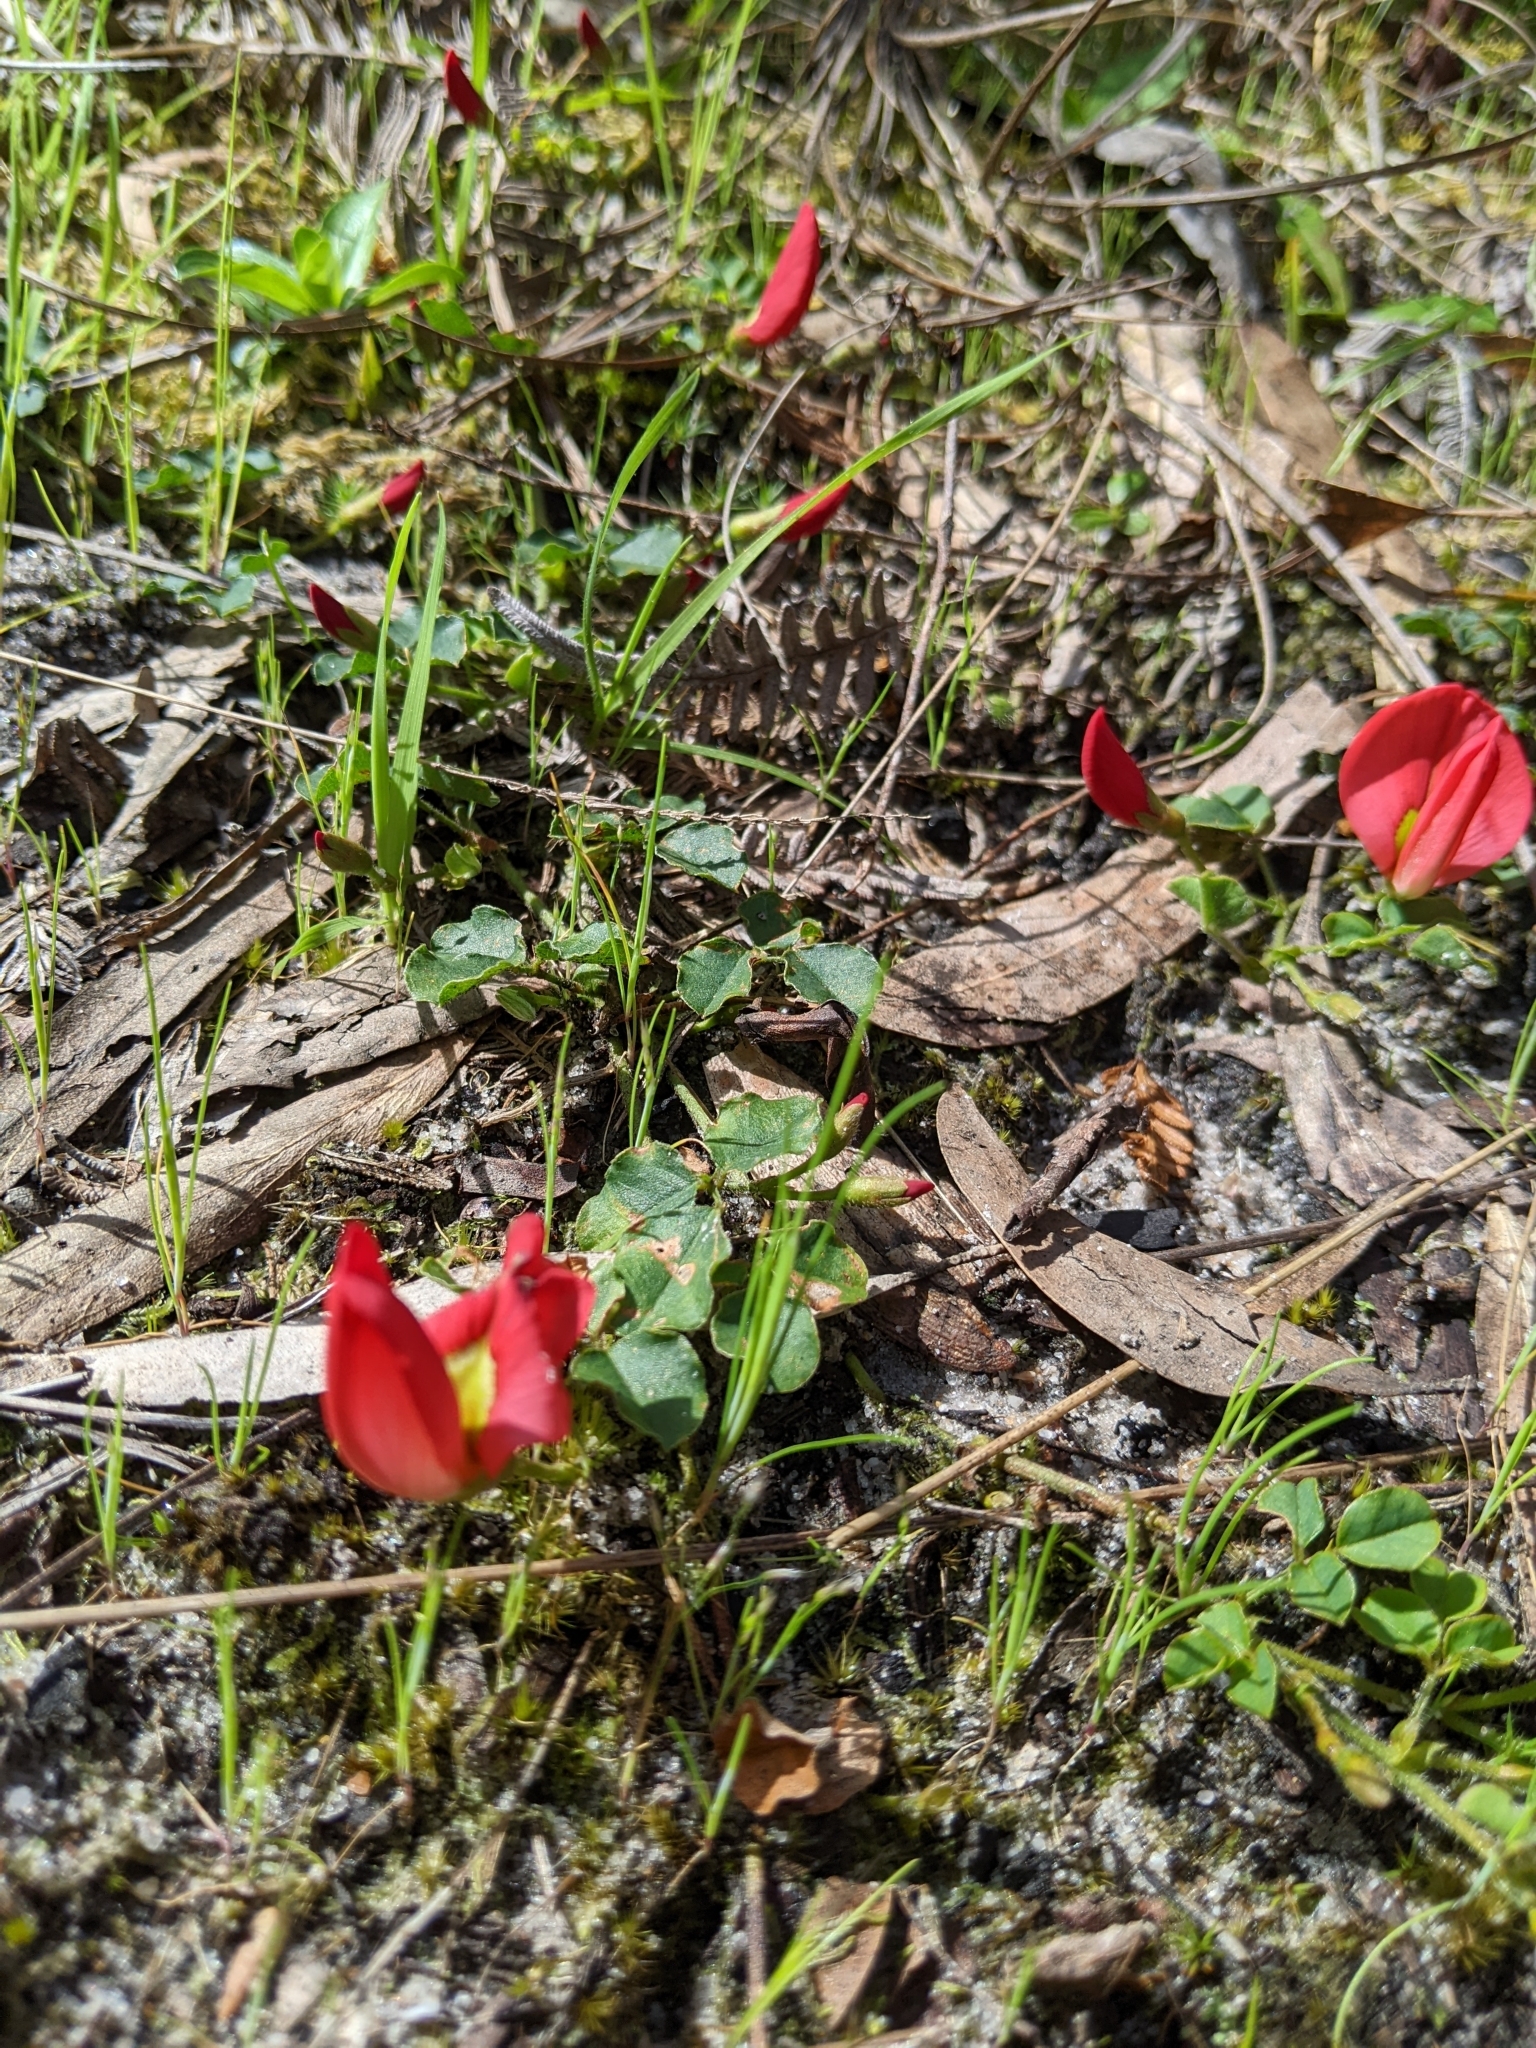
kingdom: Plantae
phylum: Tracheophyta
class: Magnoliopsida
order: Fabales
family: Fabaceae
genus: Kennedia
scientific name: Kennedia prostrata
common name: Running-postman
